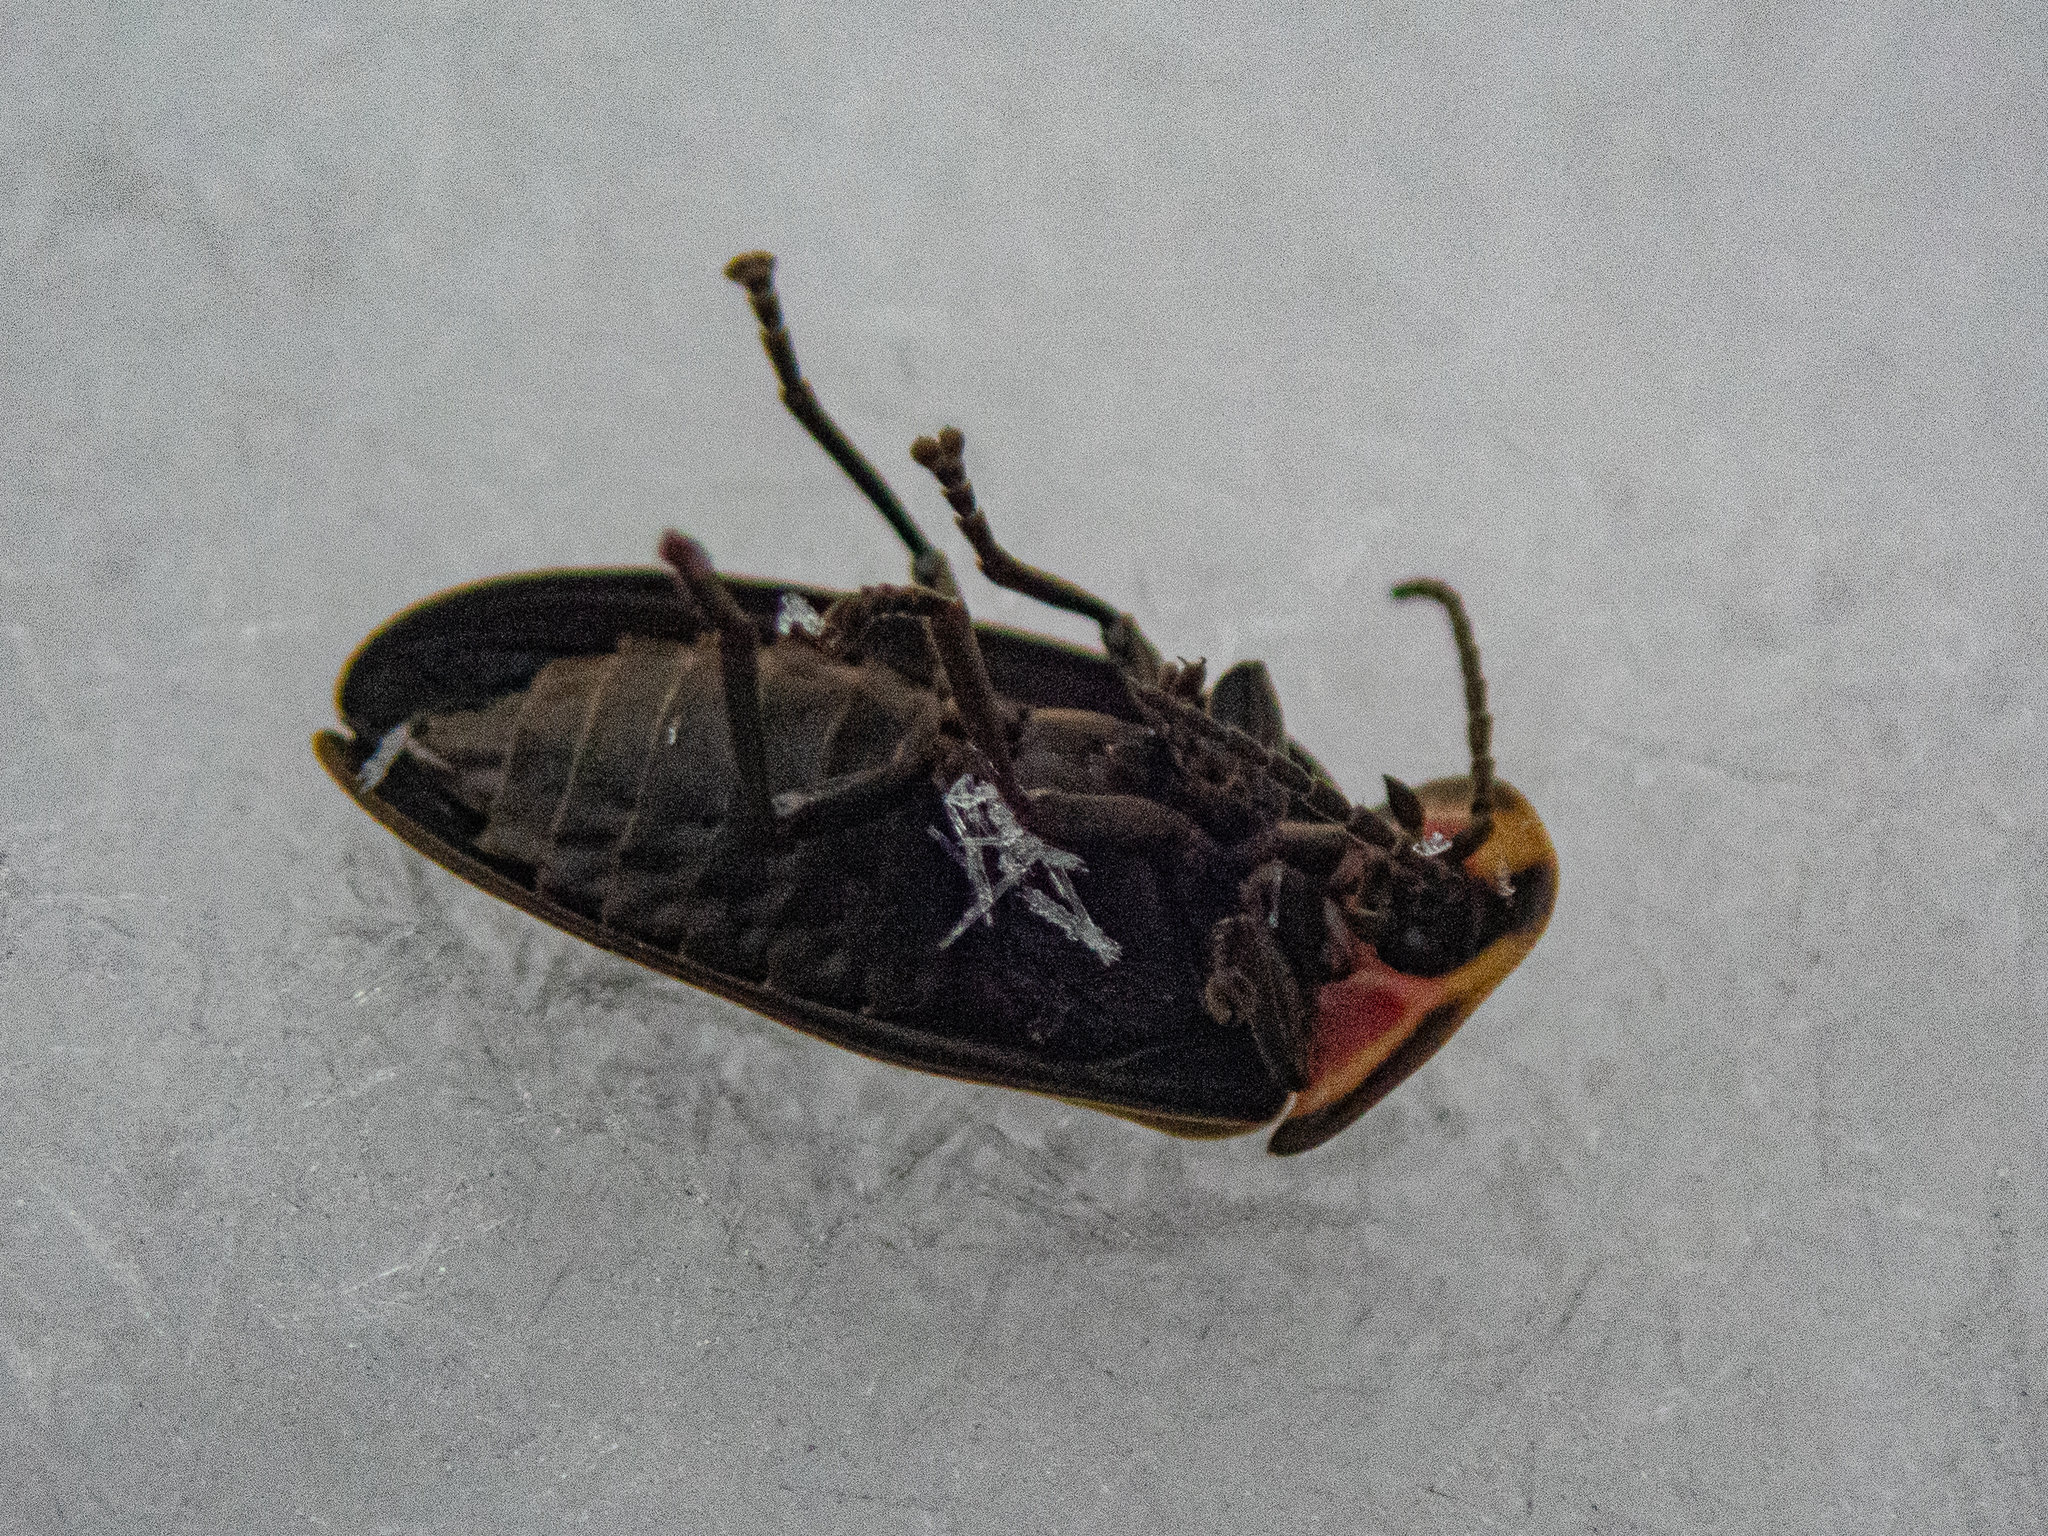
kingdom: Animalia
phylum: Arthropoda
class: Insecta
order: Coleoptera
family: Lampyridae
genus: Photinus
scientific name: Photinus corrusca
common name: Winter firefly
